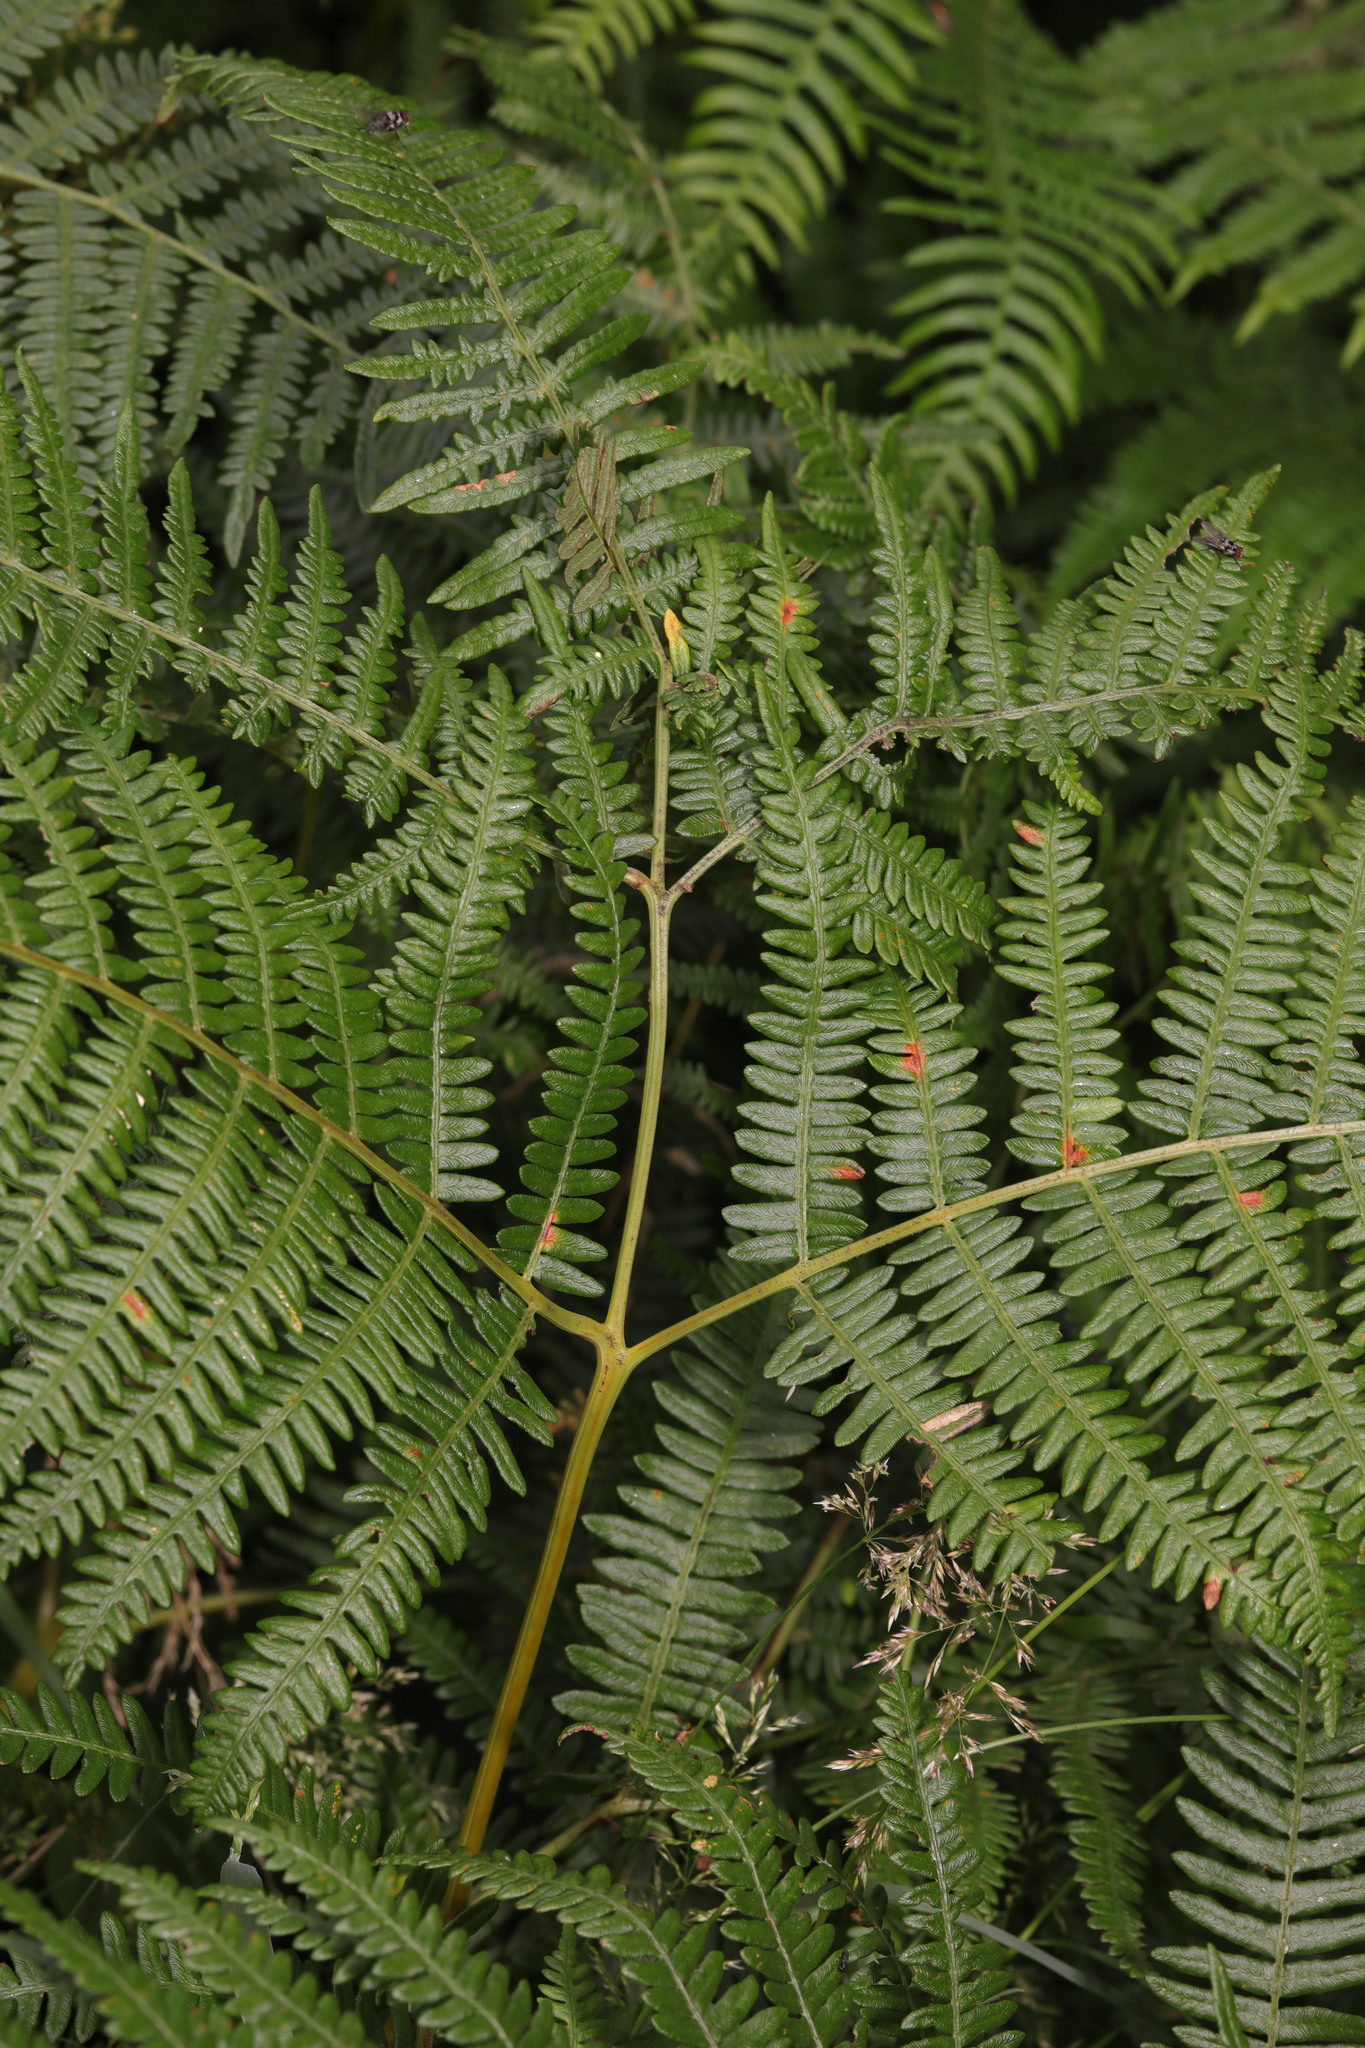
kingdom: Plantae
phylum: Tracheophyta
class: Polypodiopsida
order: Polypodiales
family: Dennstaedtiaceae
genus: Pteridium
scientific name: Pteridium aquilinum
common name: Bracken
